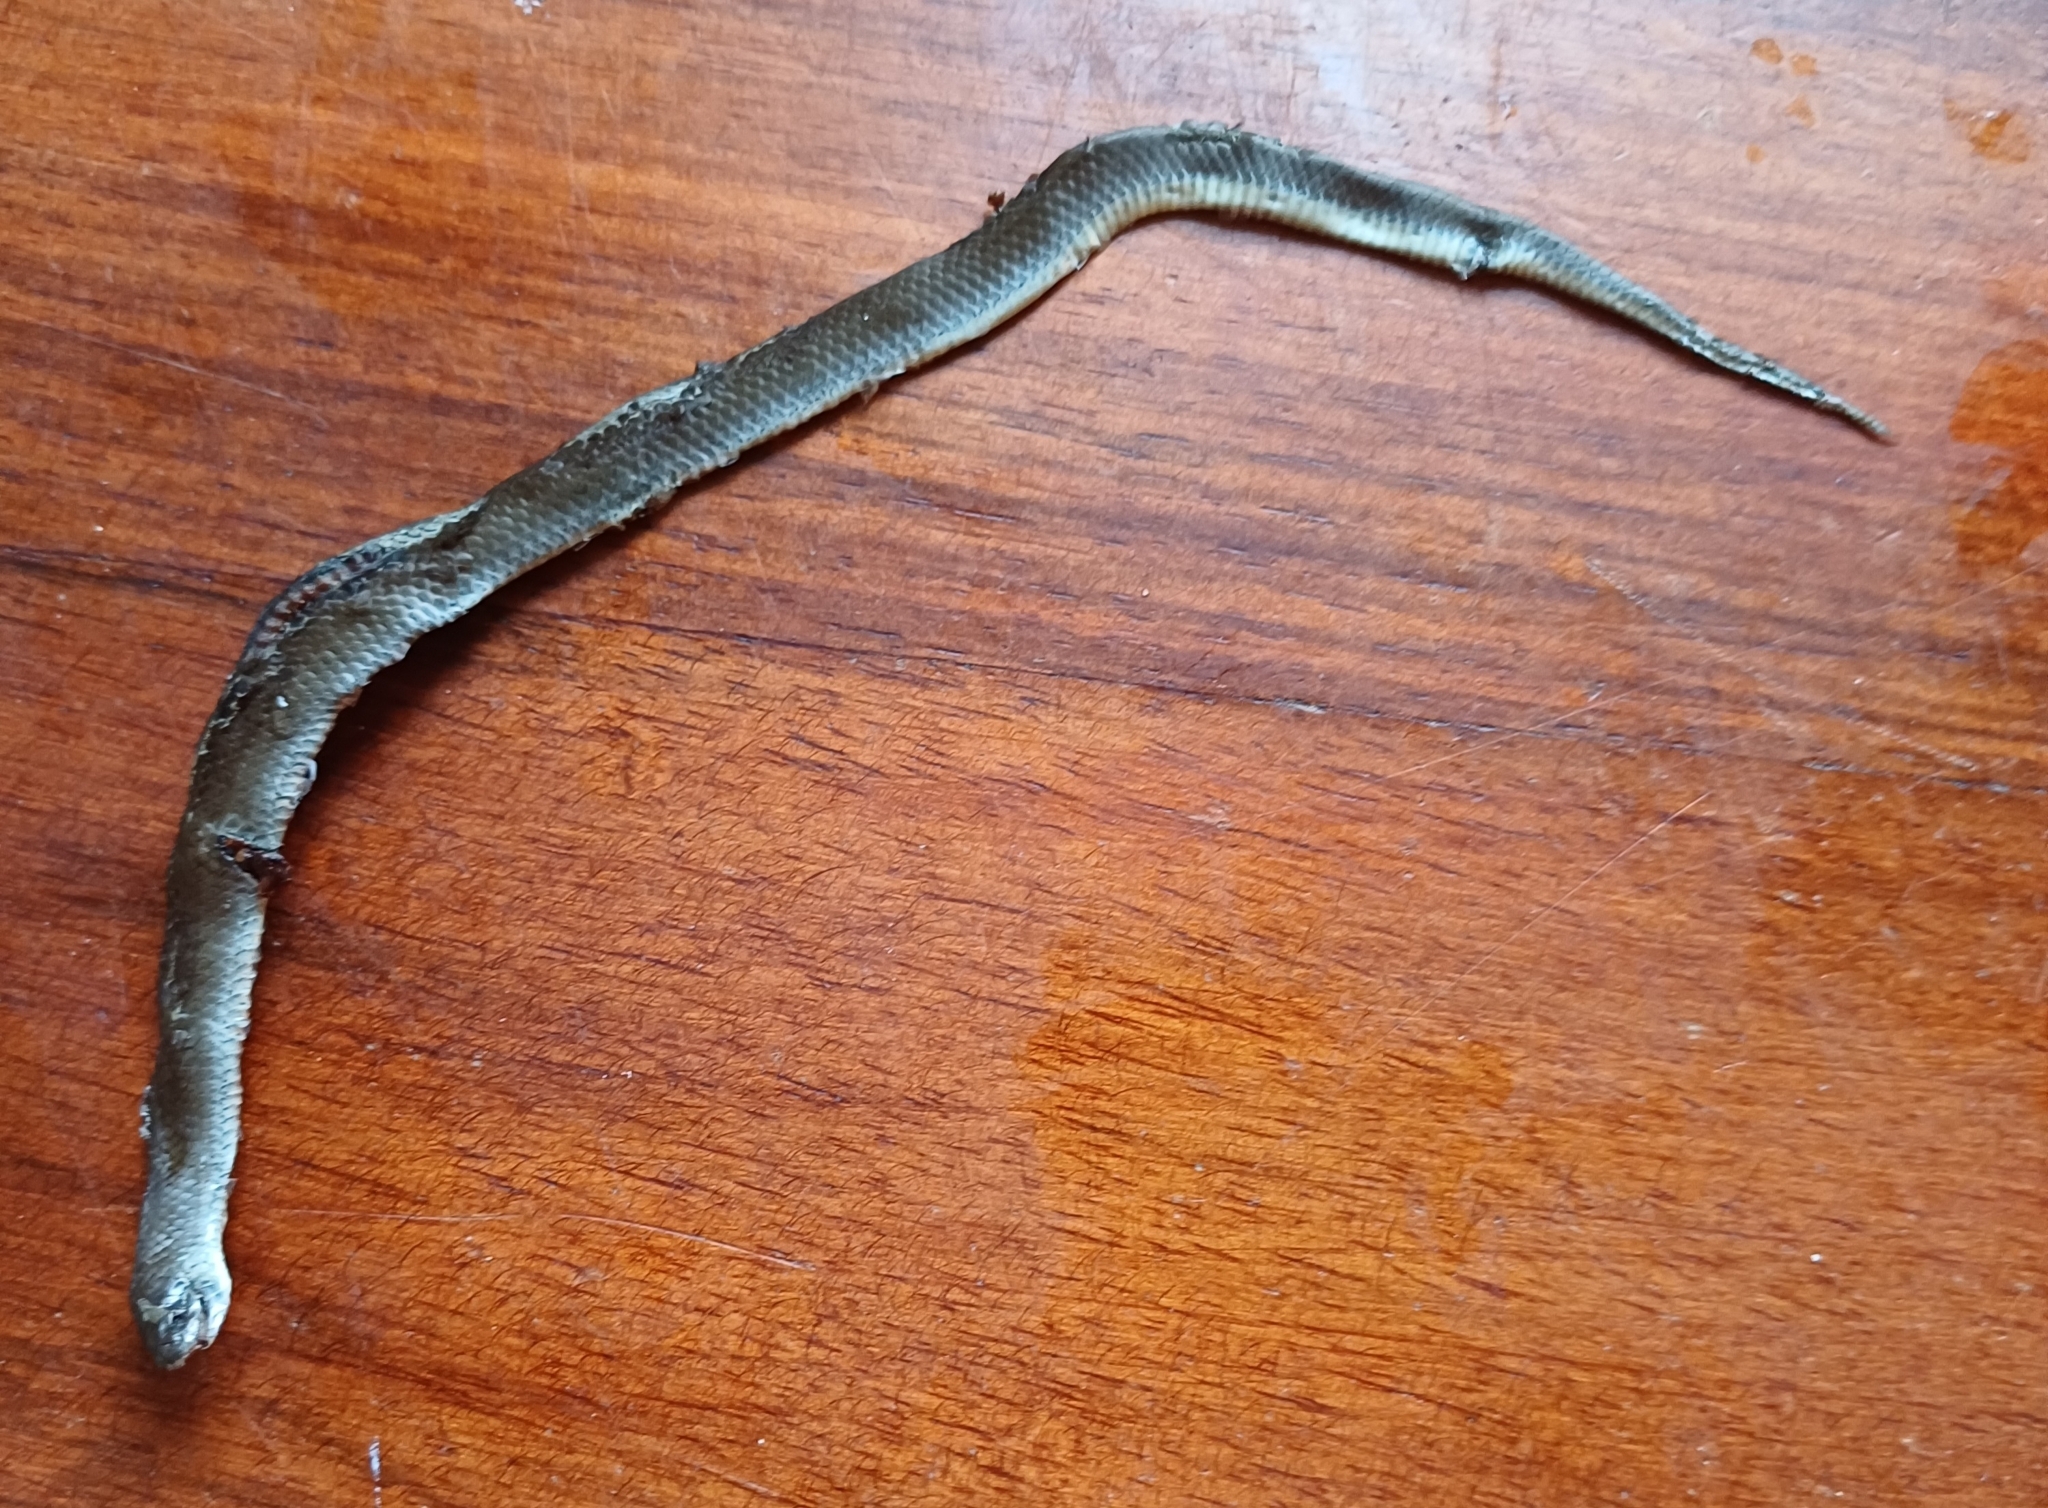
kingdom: Animalia
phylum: Chordata
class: Squamata
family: Pseudoxyrhophiidae
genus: Duberria
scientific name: Duberria lutrix
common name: Common slug eater
